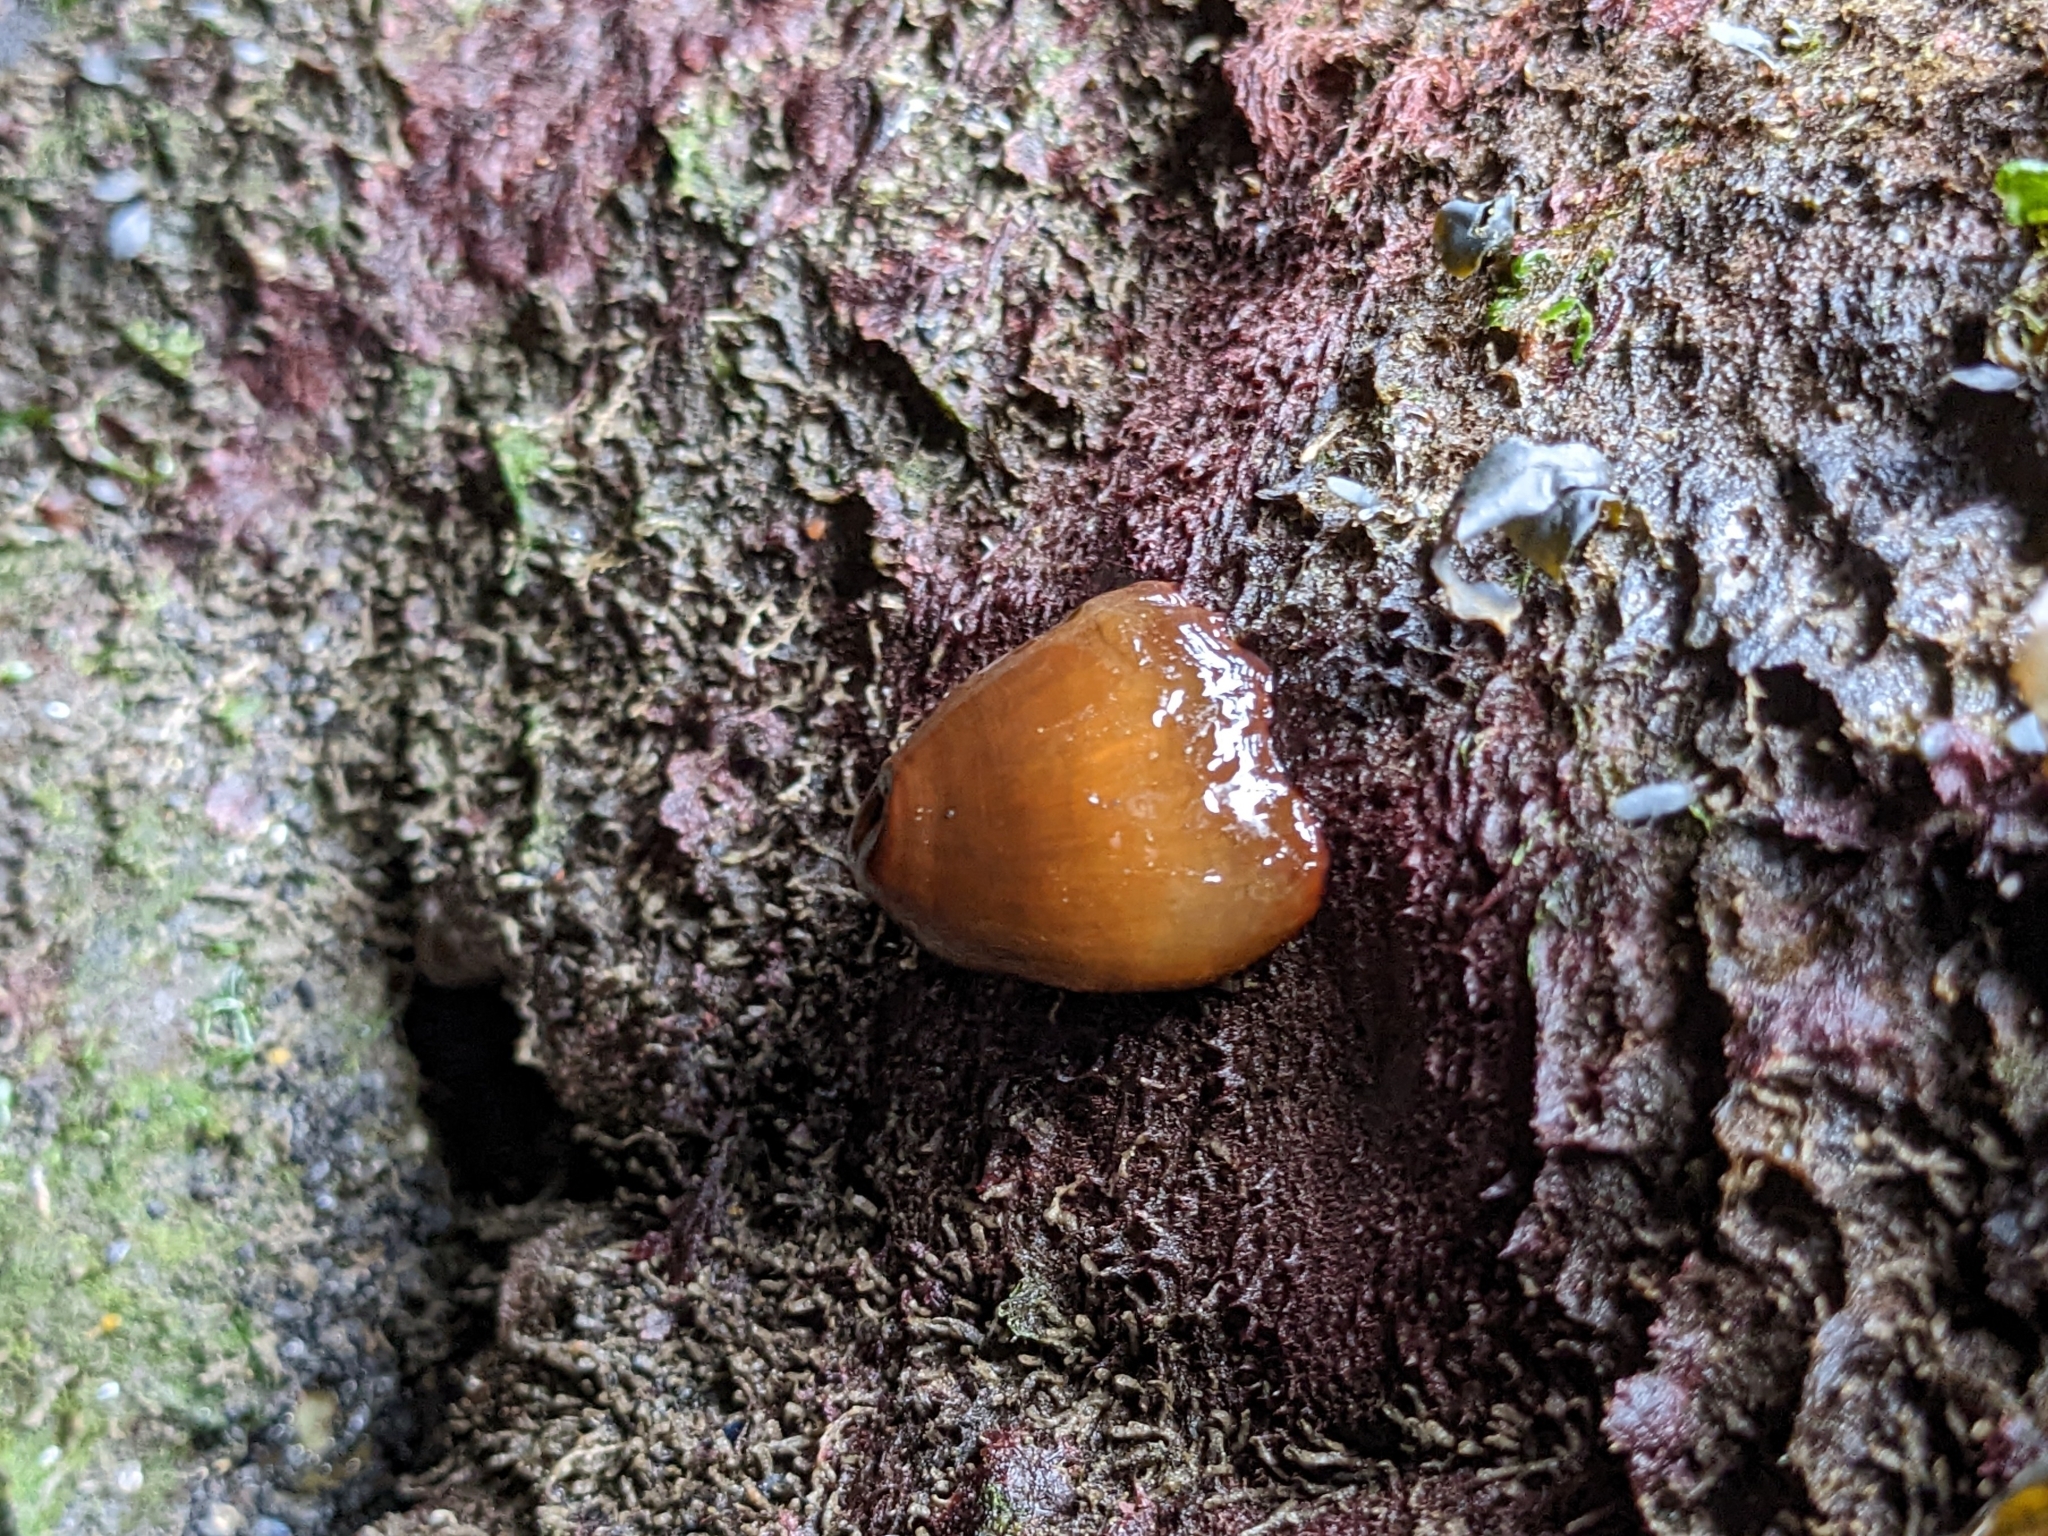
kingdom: Animalia
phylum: Cnidaria
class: Anthozoa
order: Actiniaria
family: Metridiidae
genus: Metridium
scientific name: Metridium senile
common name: Clonal plumose anemone
